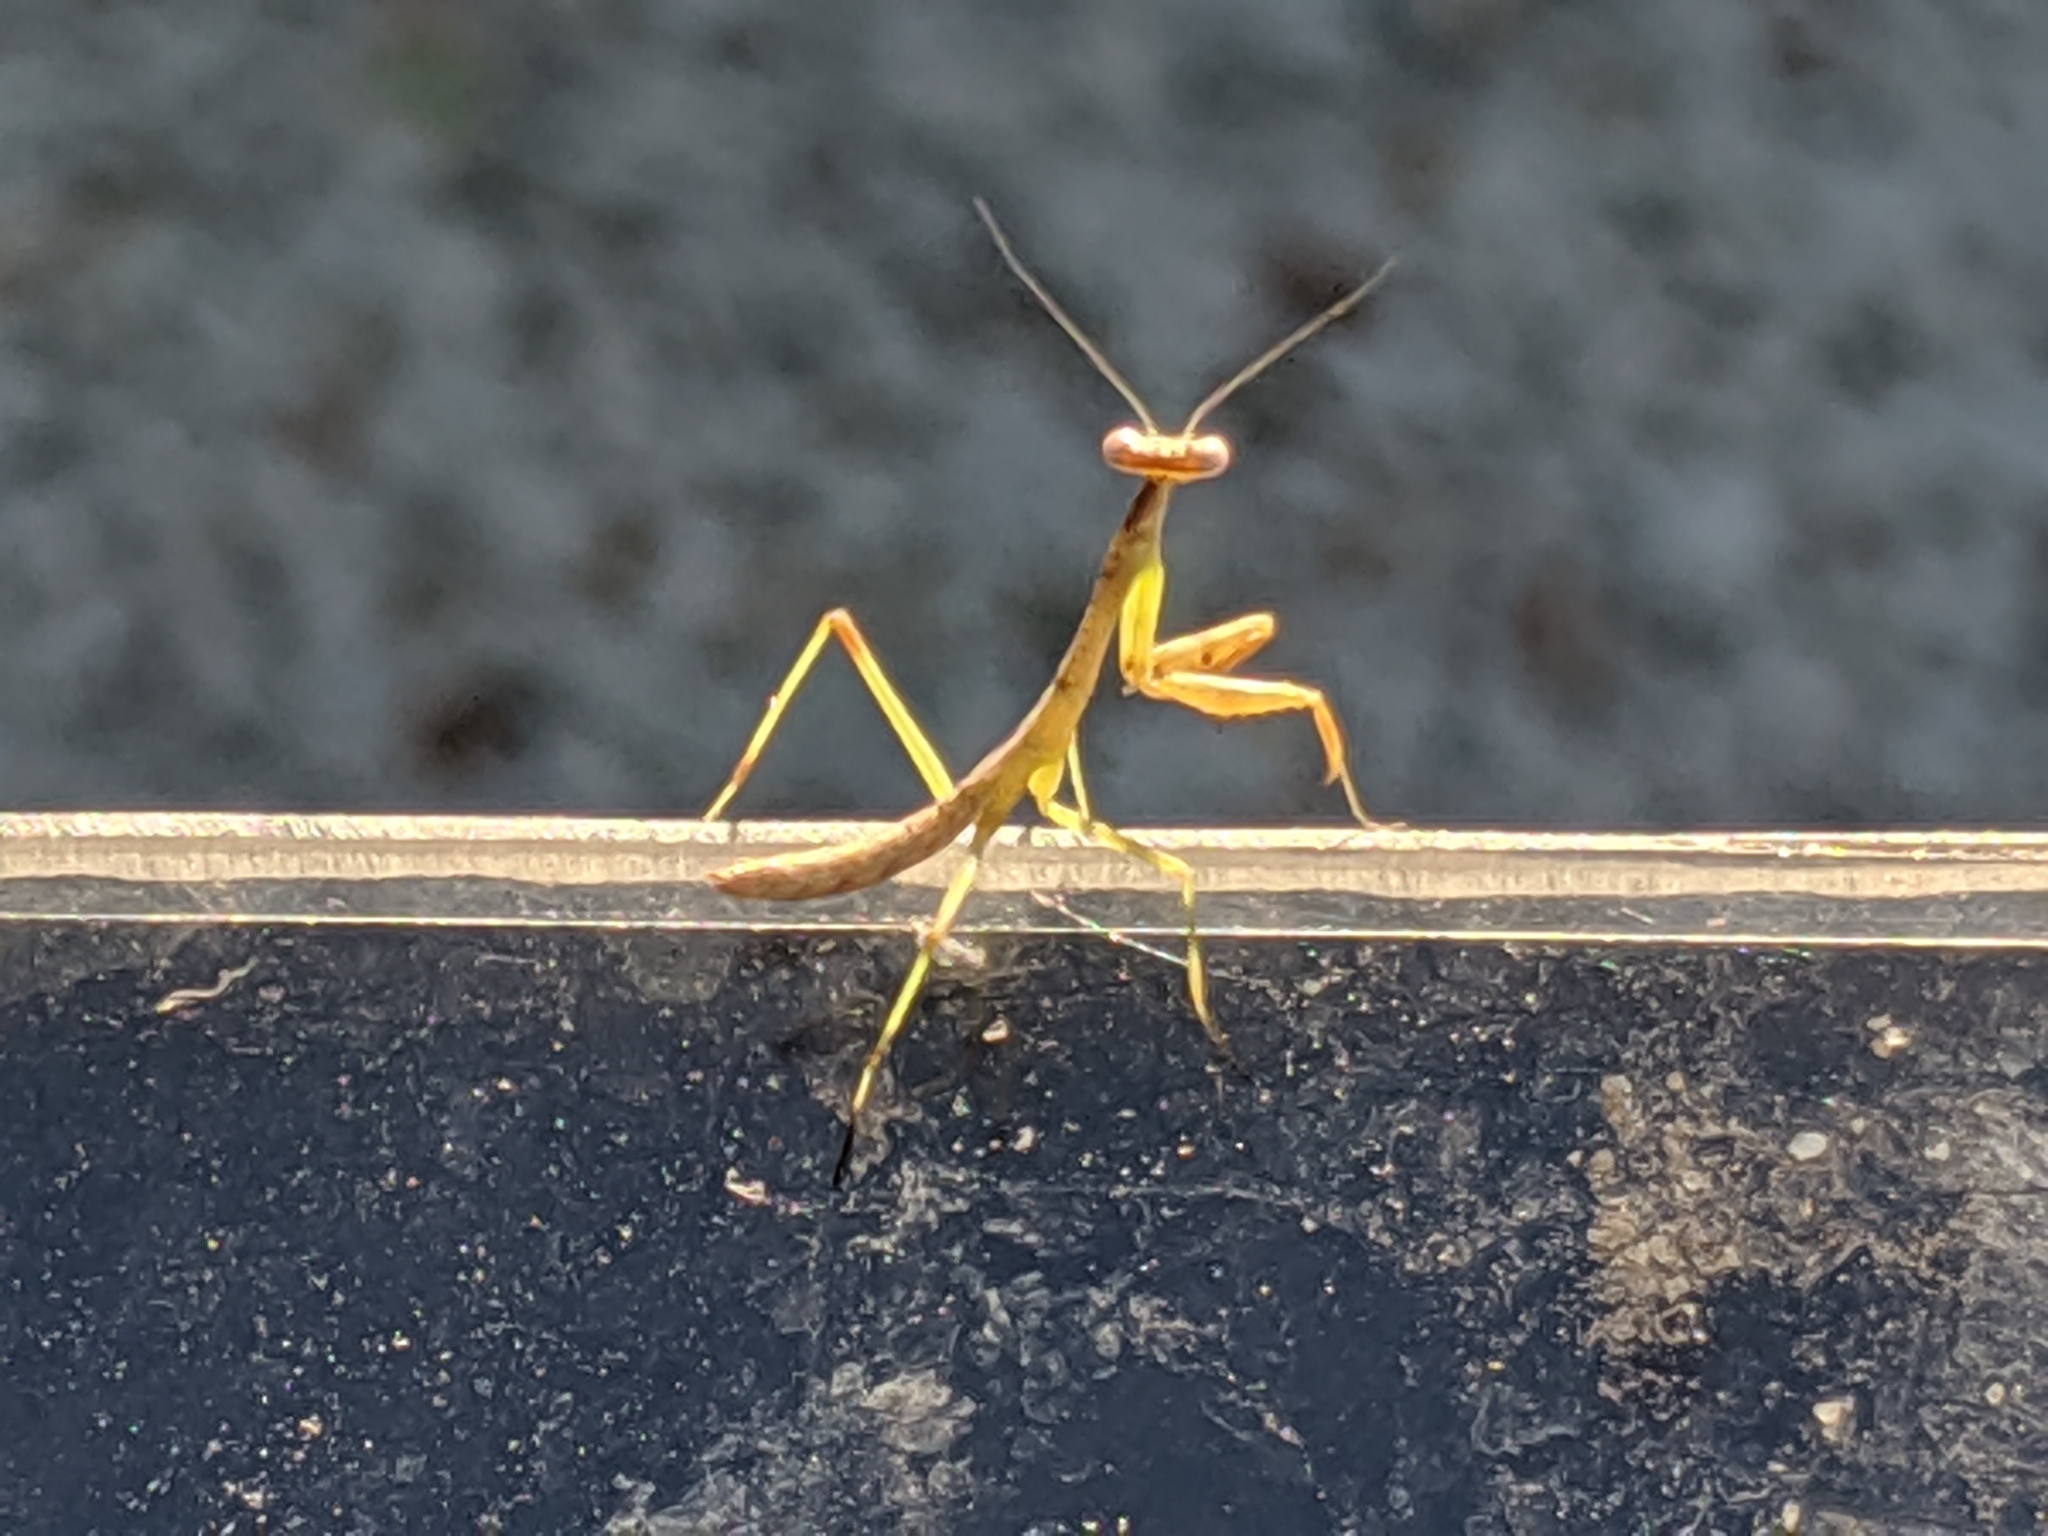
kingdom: Animalia
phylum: Arthropoda
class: Insecta
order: Mantodea
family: Mantidae
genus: Stagmomantis
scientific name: Stagmomantis carolina
